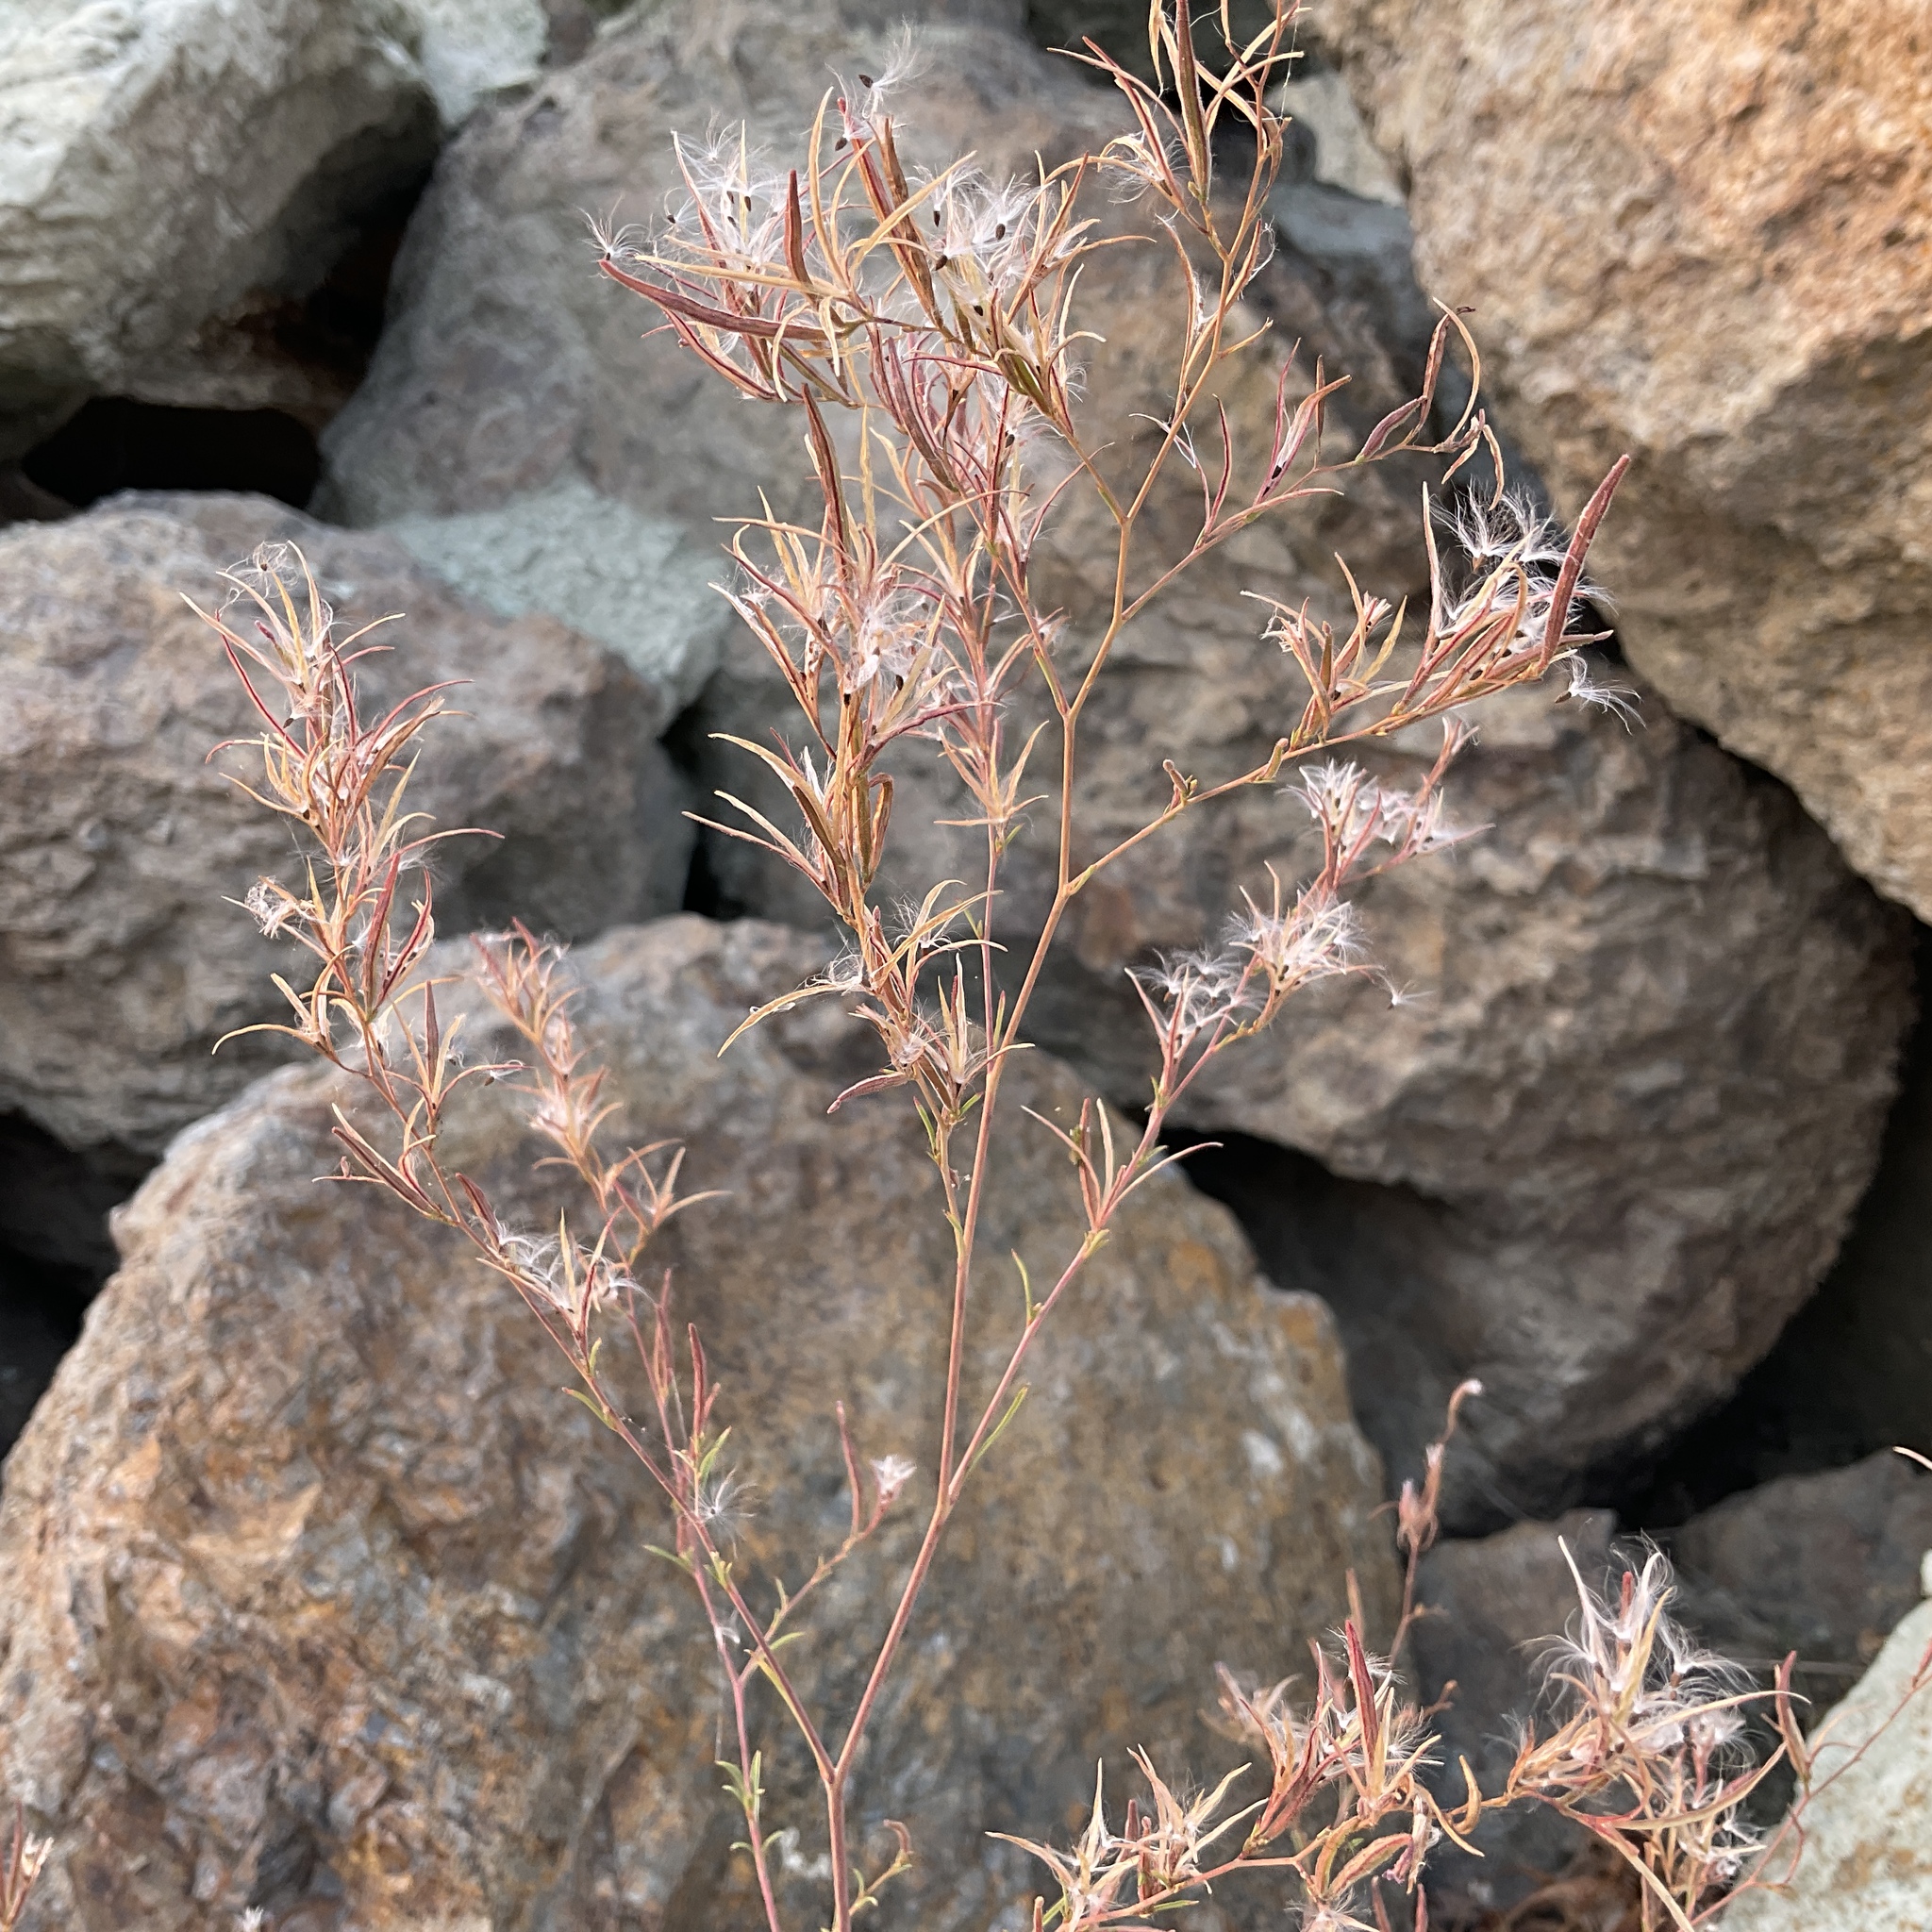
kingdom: Plantae
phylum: Tracheophyta
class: Magnoliopsida
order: Myrtales
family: Onagraceae
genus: Epilobium
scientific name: Epilobium brachycarpum
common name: Annual willowherb
